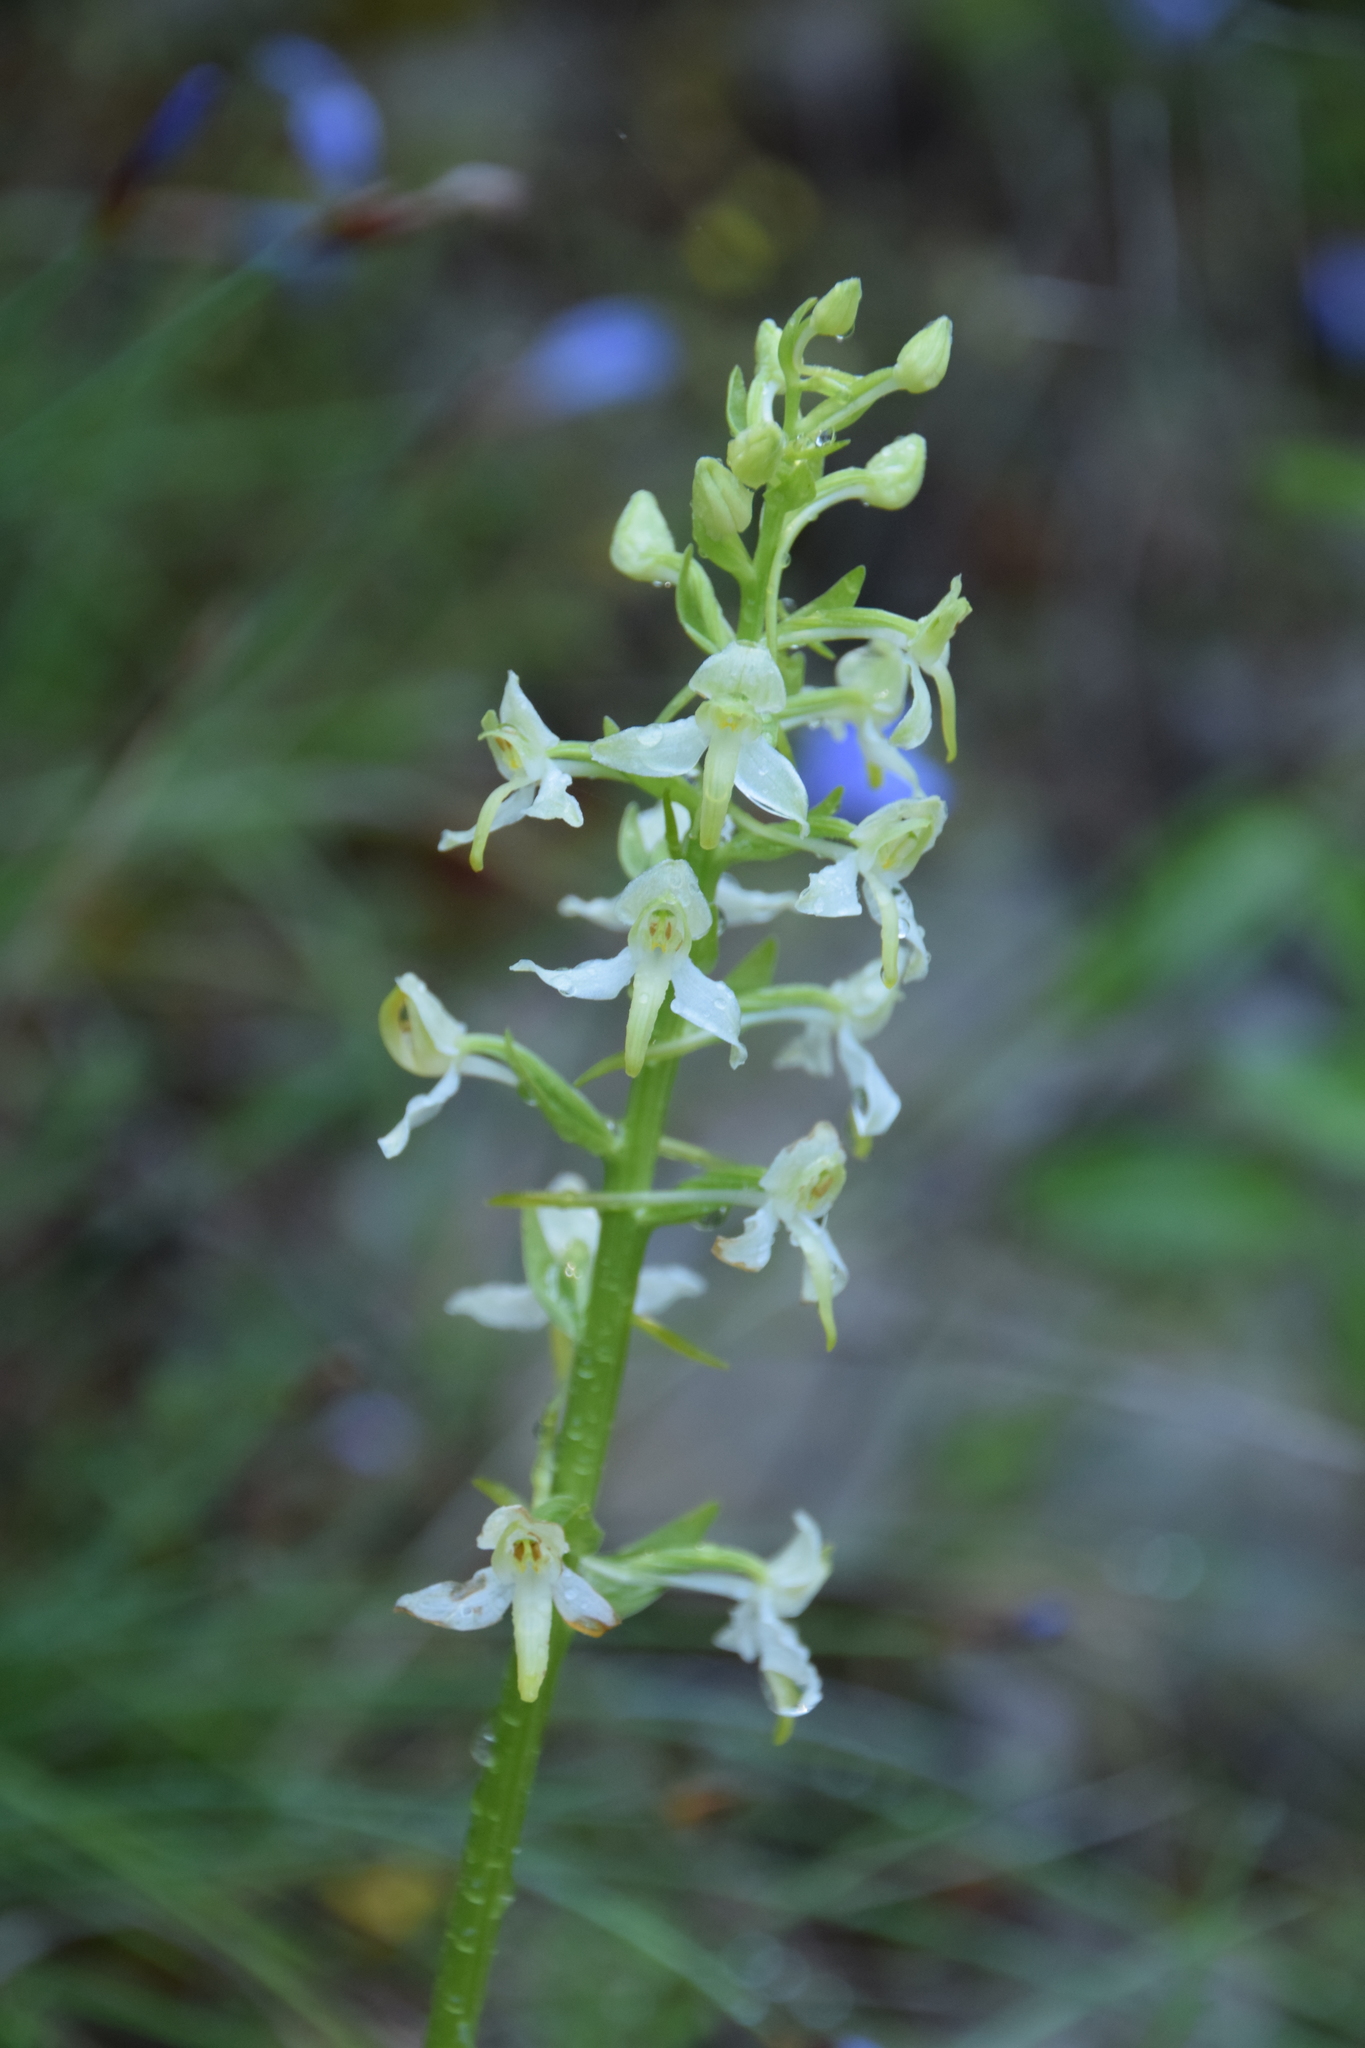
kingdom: Plantae
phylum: Tracheophyta
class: Liliopsida
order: Asparagales
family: Orchidaceae
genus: Platanthera
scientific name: Platanthera bifolia
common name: Lesser butterfly-orchid
